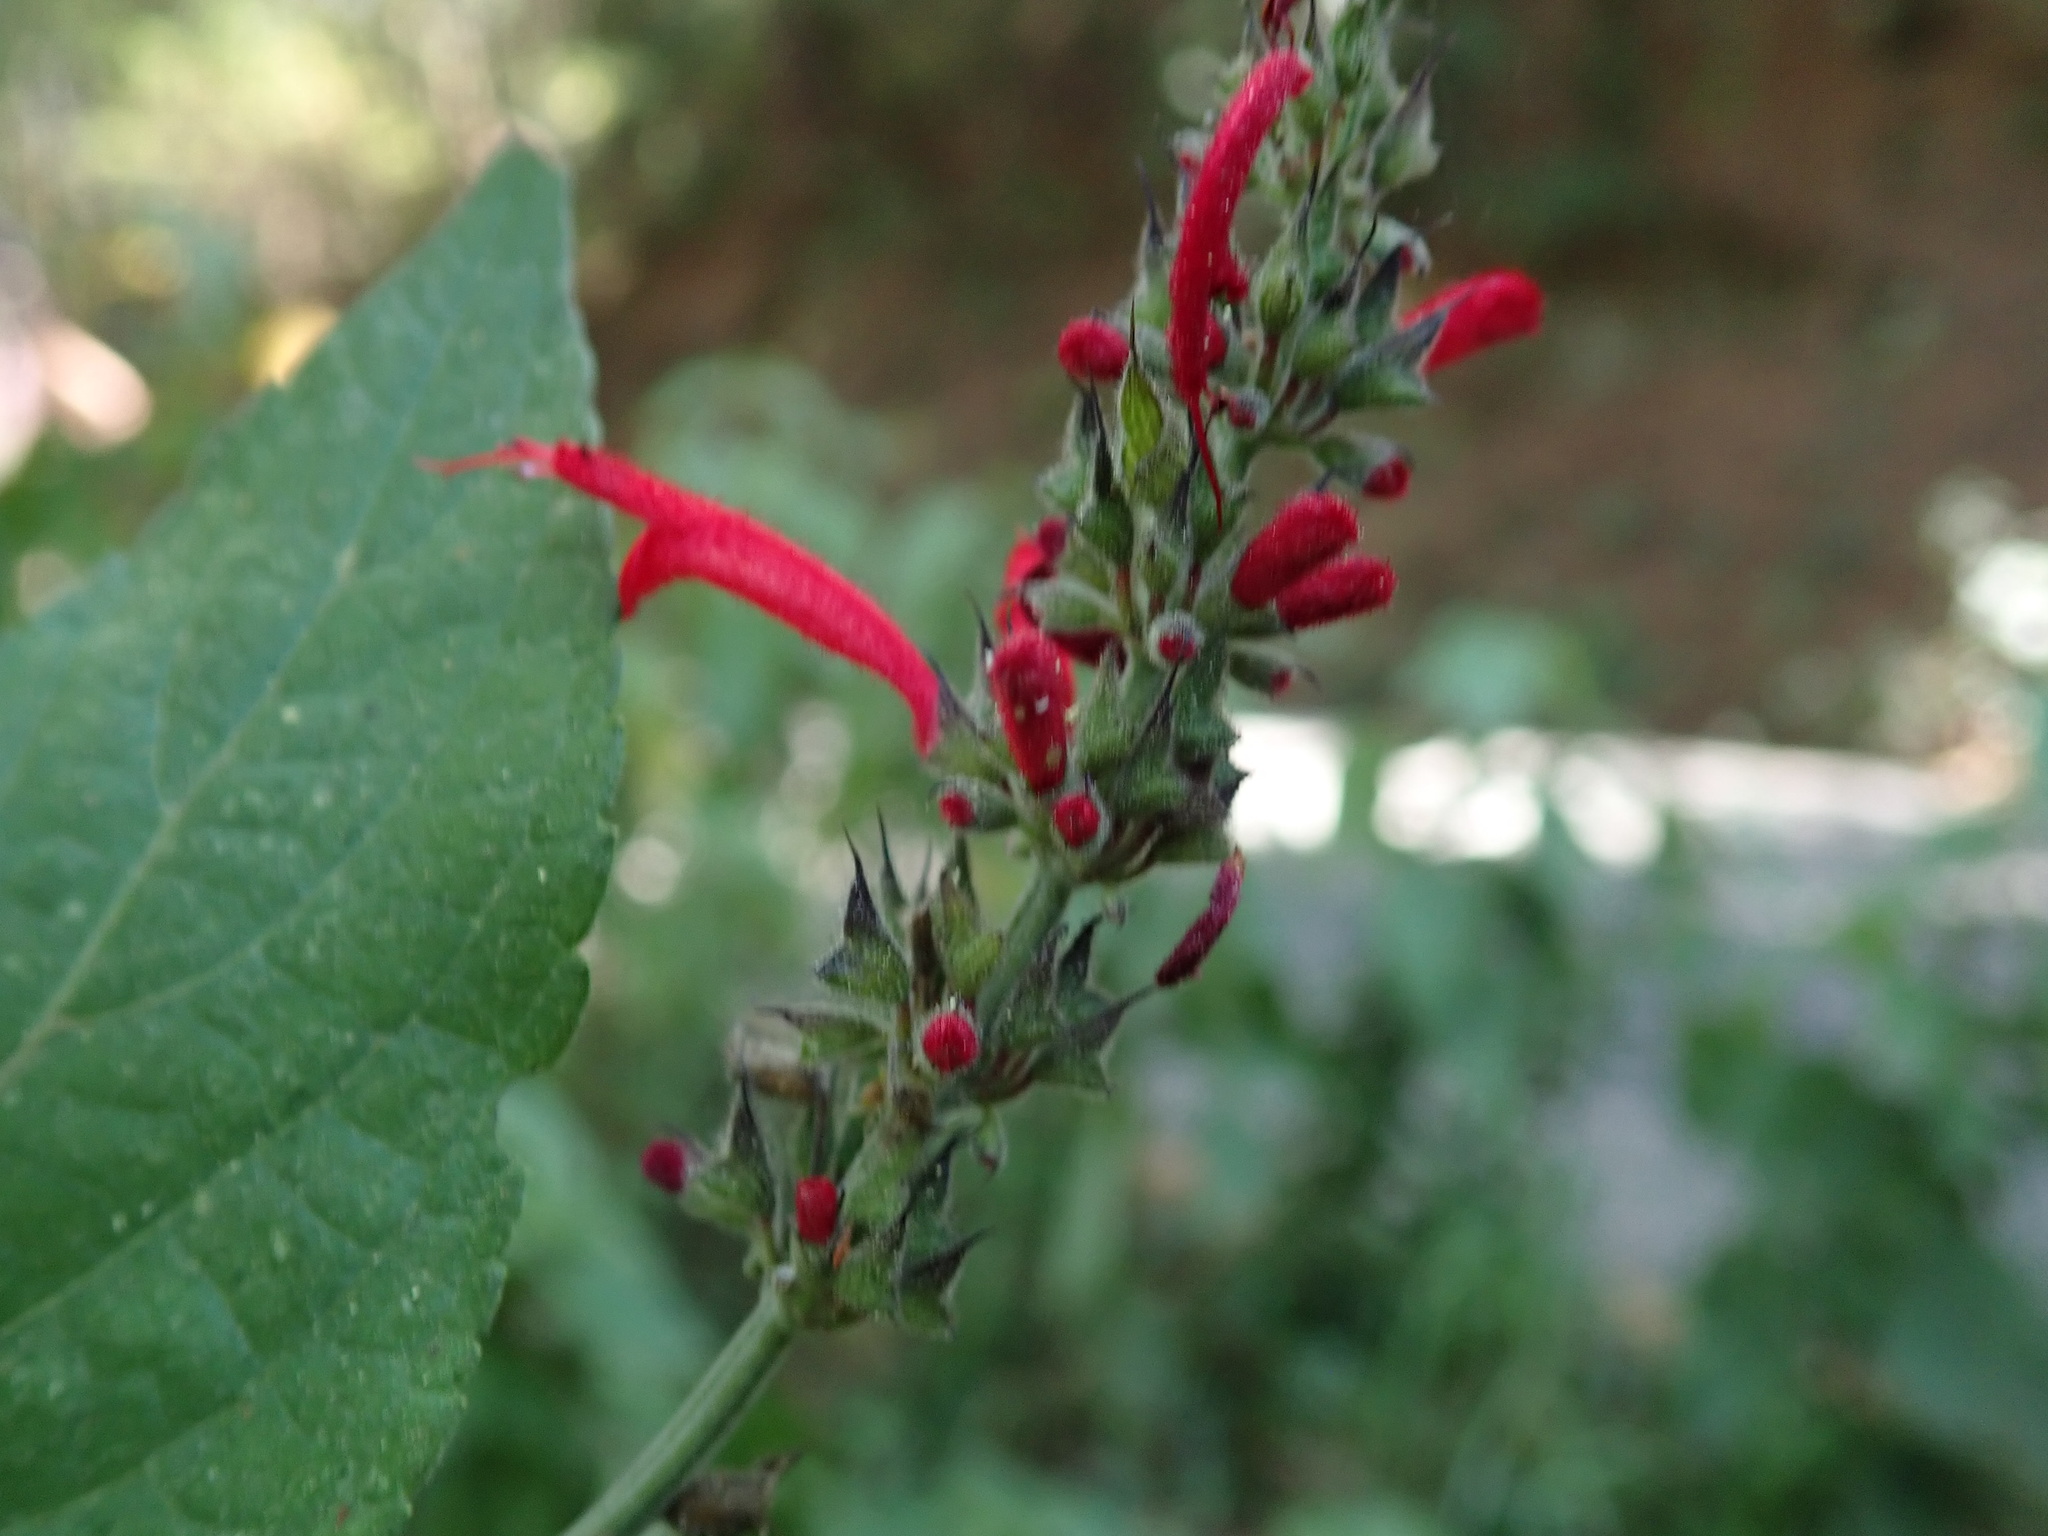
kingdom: Plantae
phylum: Tracheophyta
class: Magnoliopsida
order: Lamiales
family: Lamiaceae
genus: Salvia
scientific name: Salvia cinnabarina
